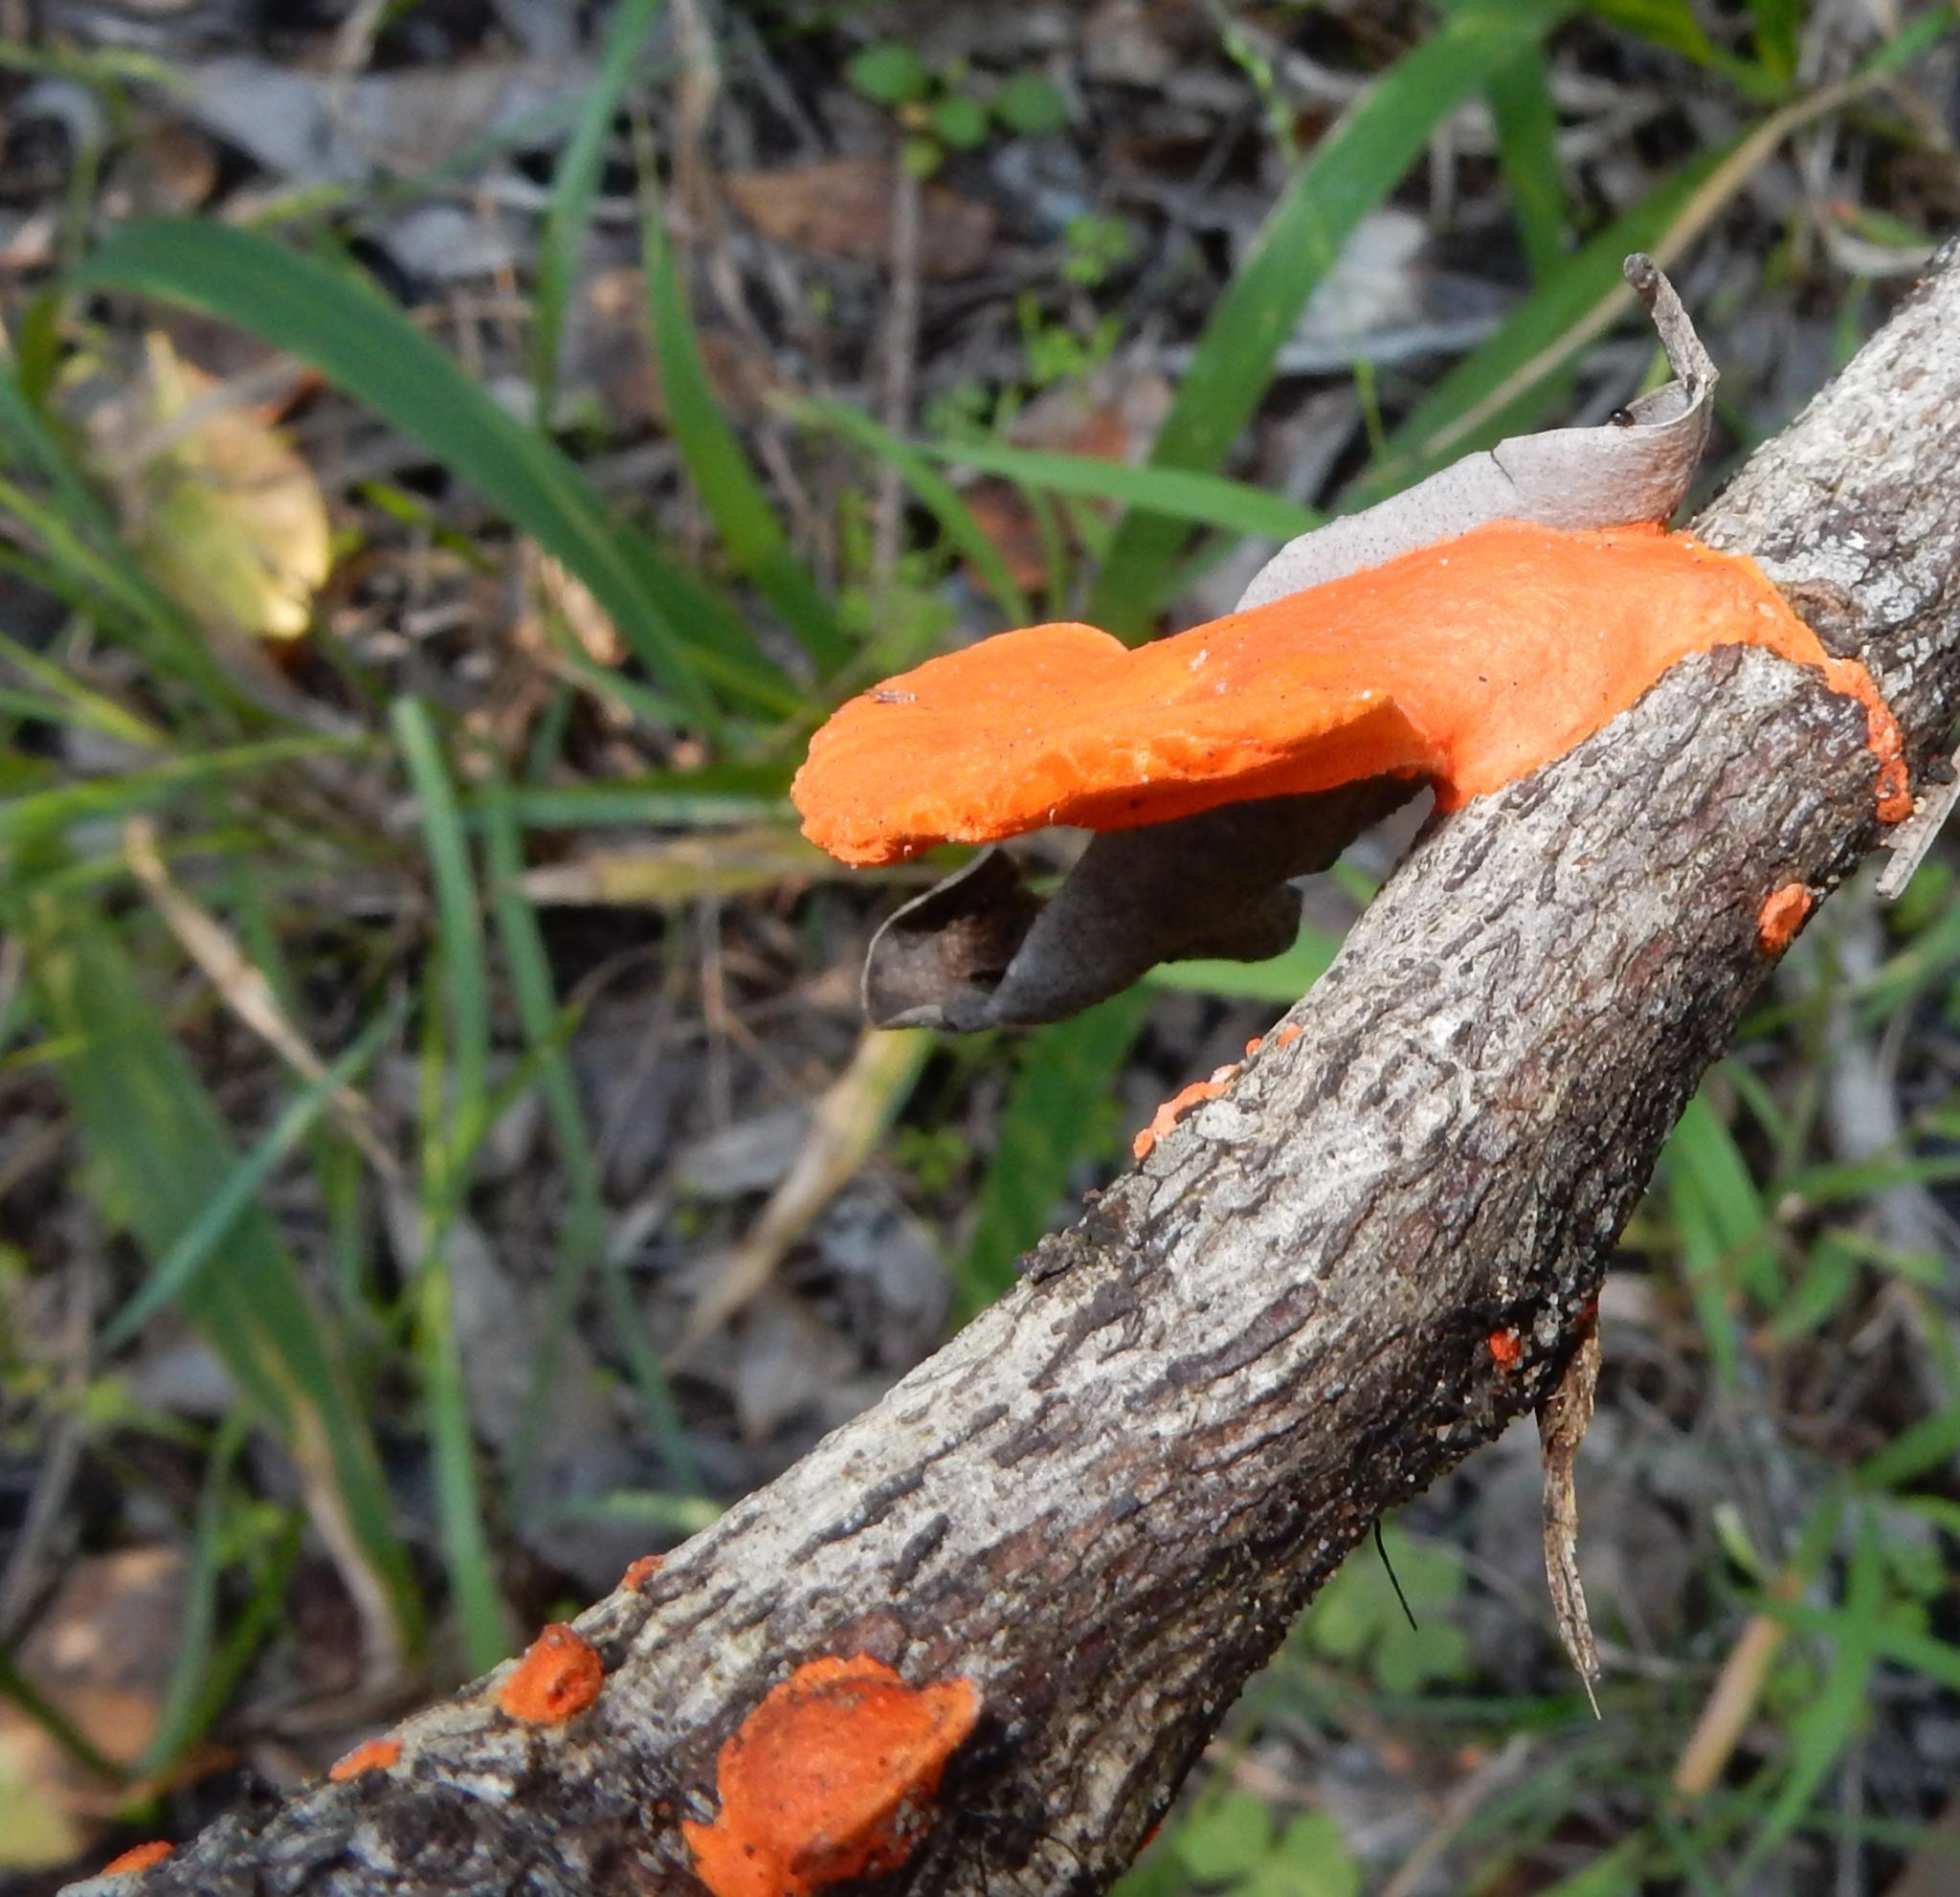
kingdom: Fungi
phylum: Basidiomycota
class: Agaricomycetes
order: Polyporales
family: Polyporaceae
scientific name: Polyporaceae
